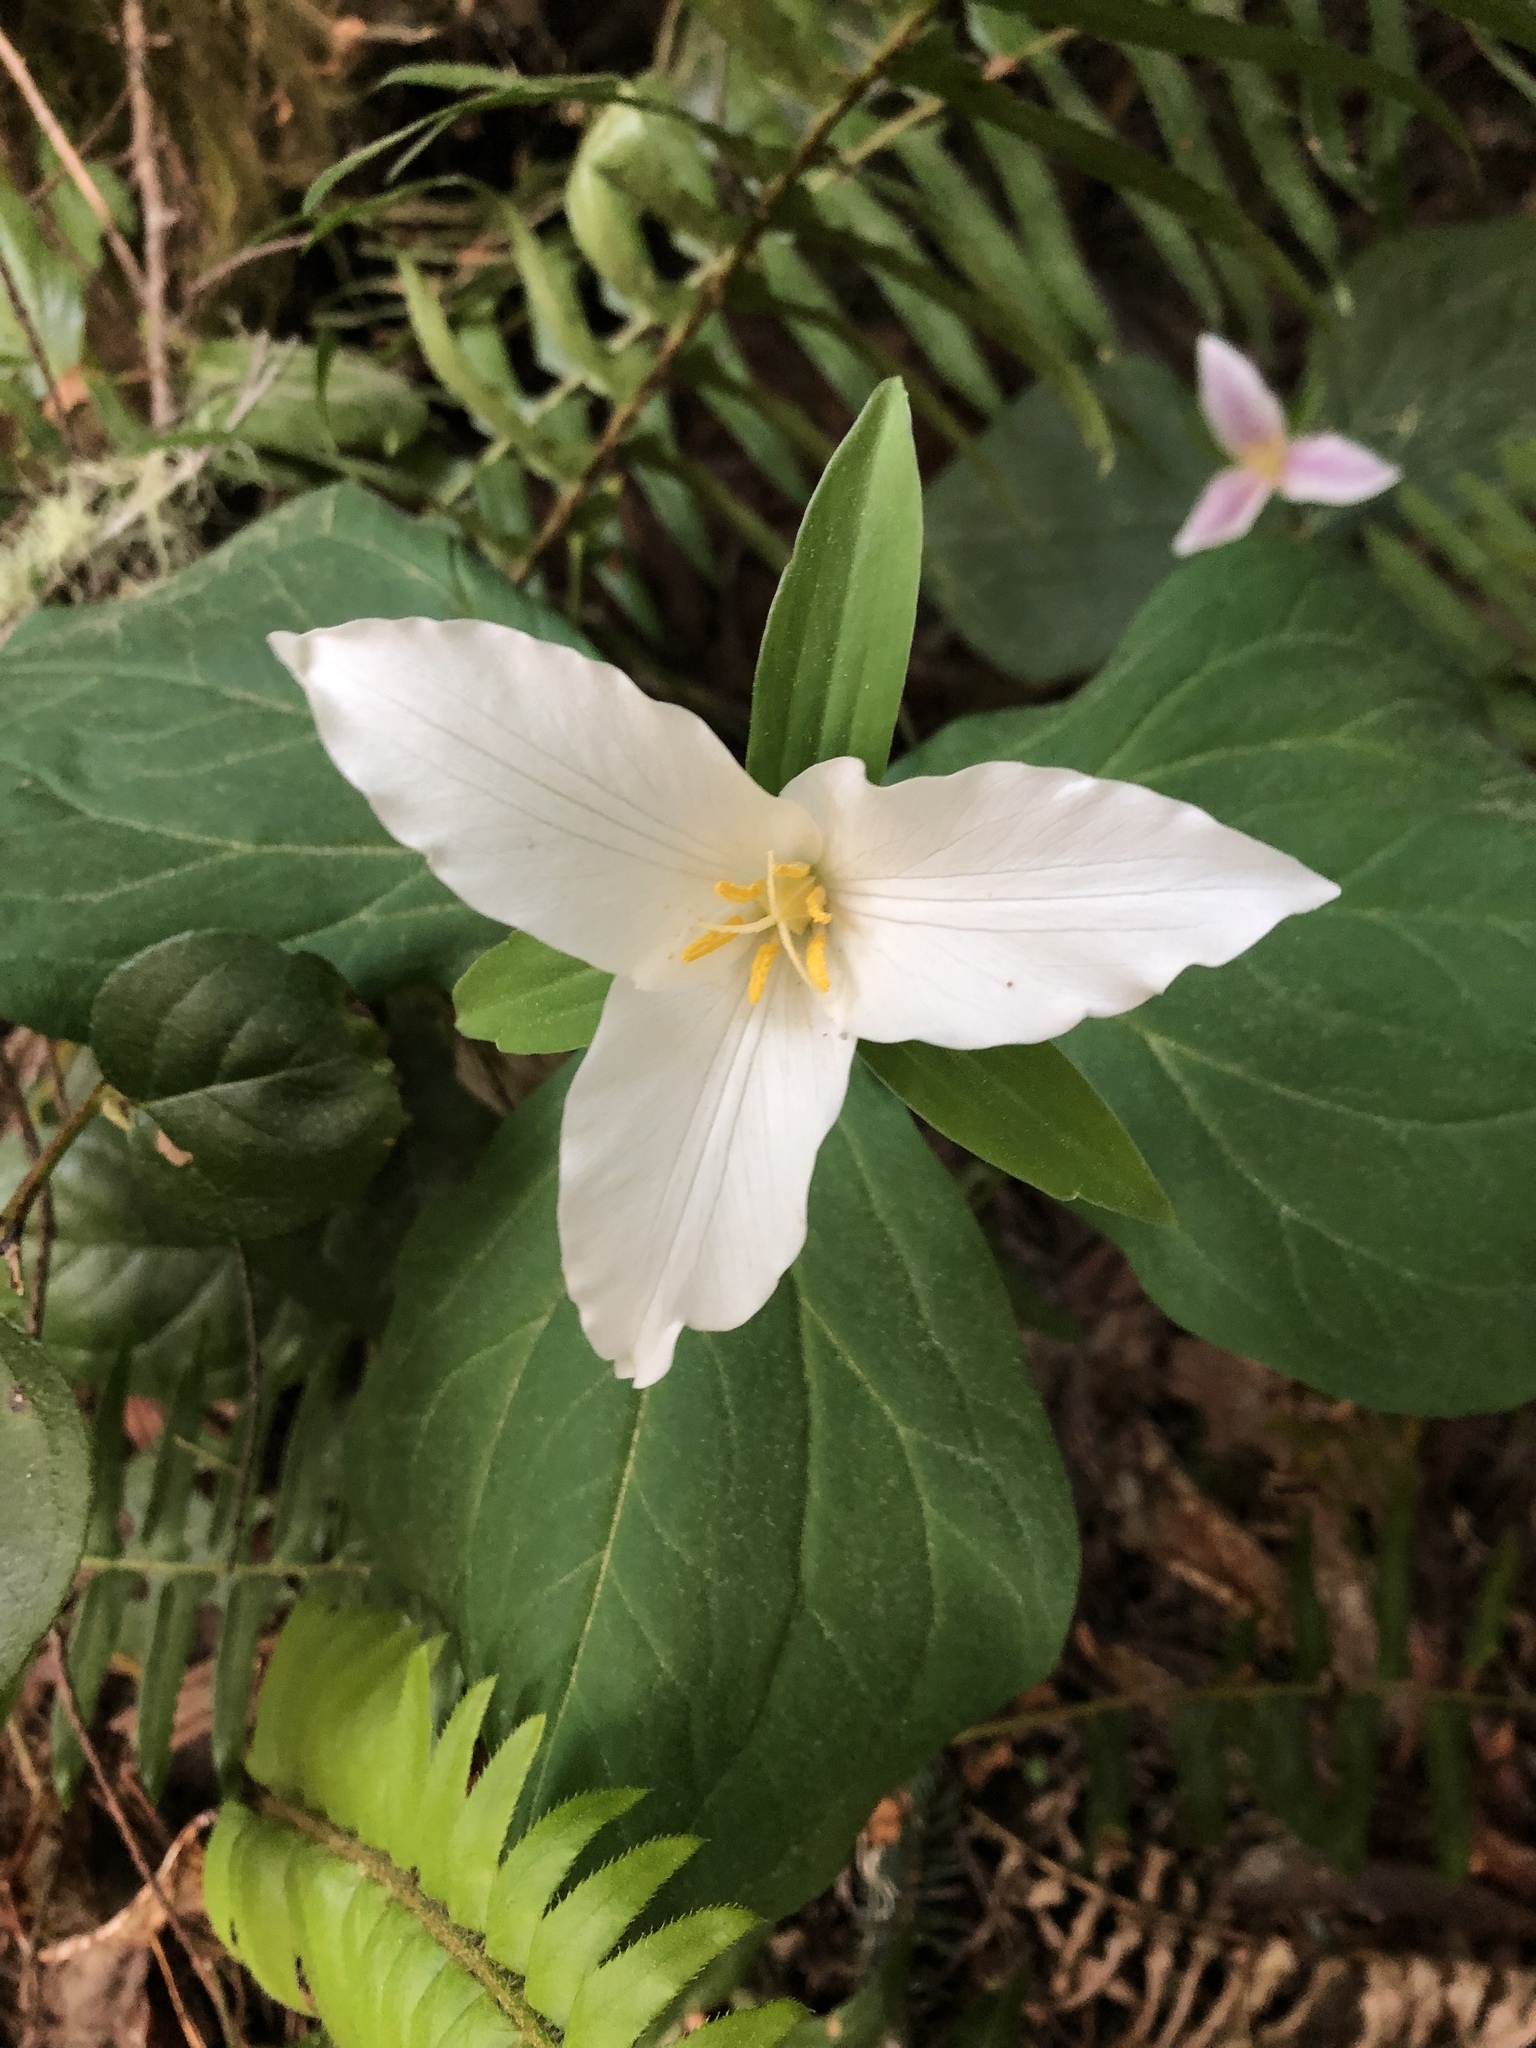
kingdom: Plantae
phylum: Tracheophyta
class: Liliopsida
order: Liliales
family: Melanthiaceae
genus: Trillium
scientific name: Trillium ovatum
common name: Pacific trillium
